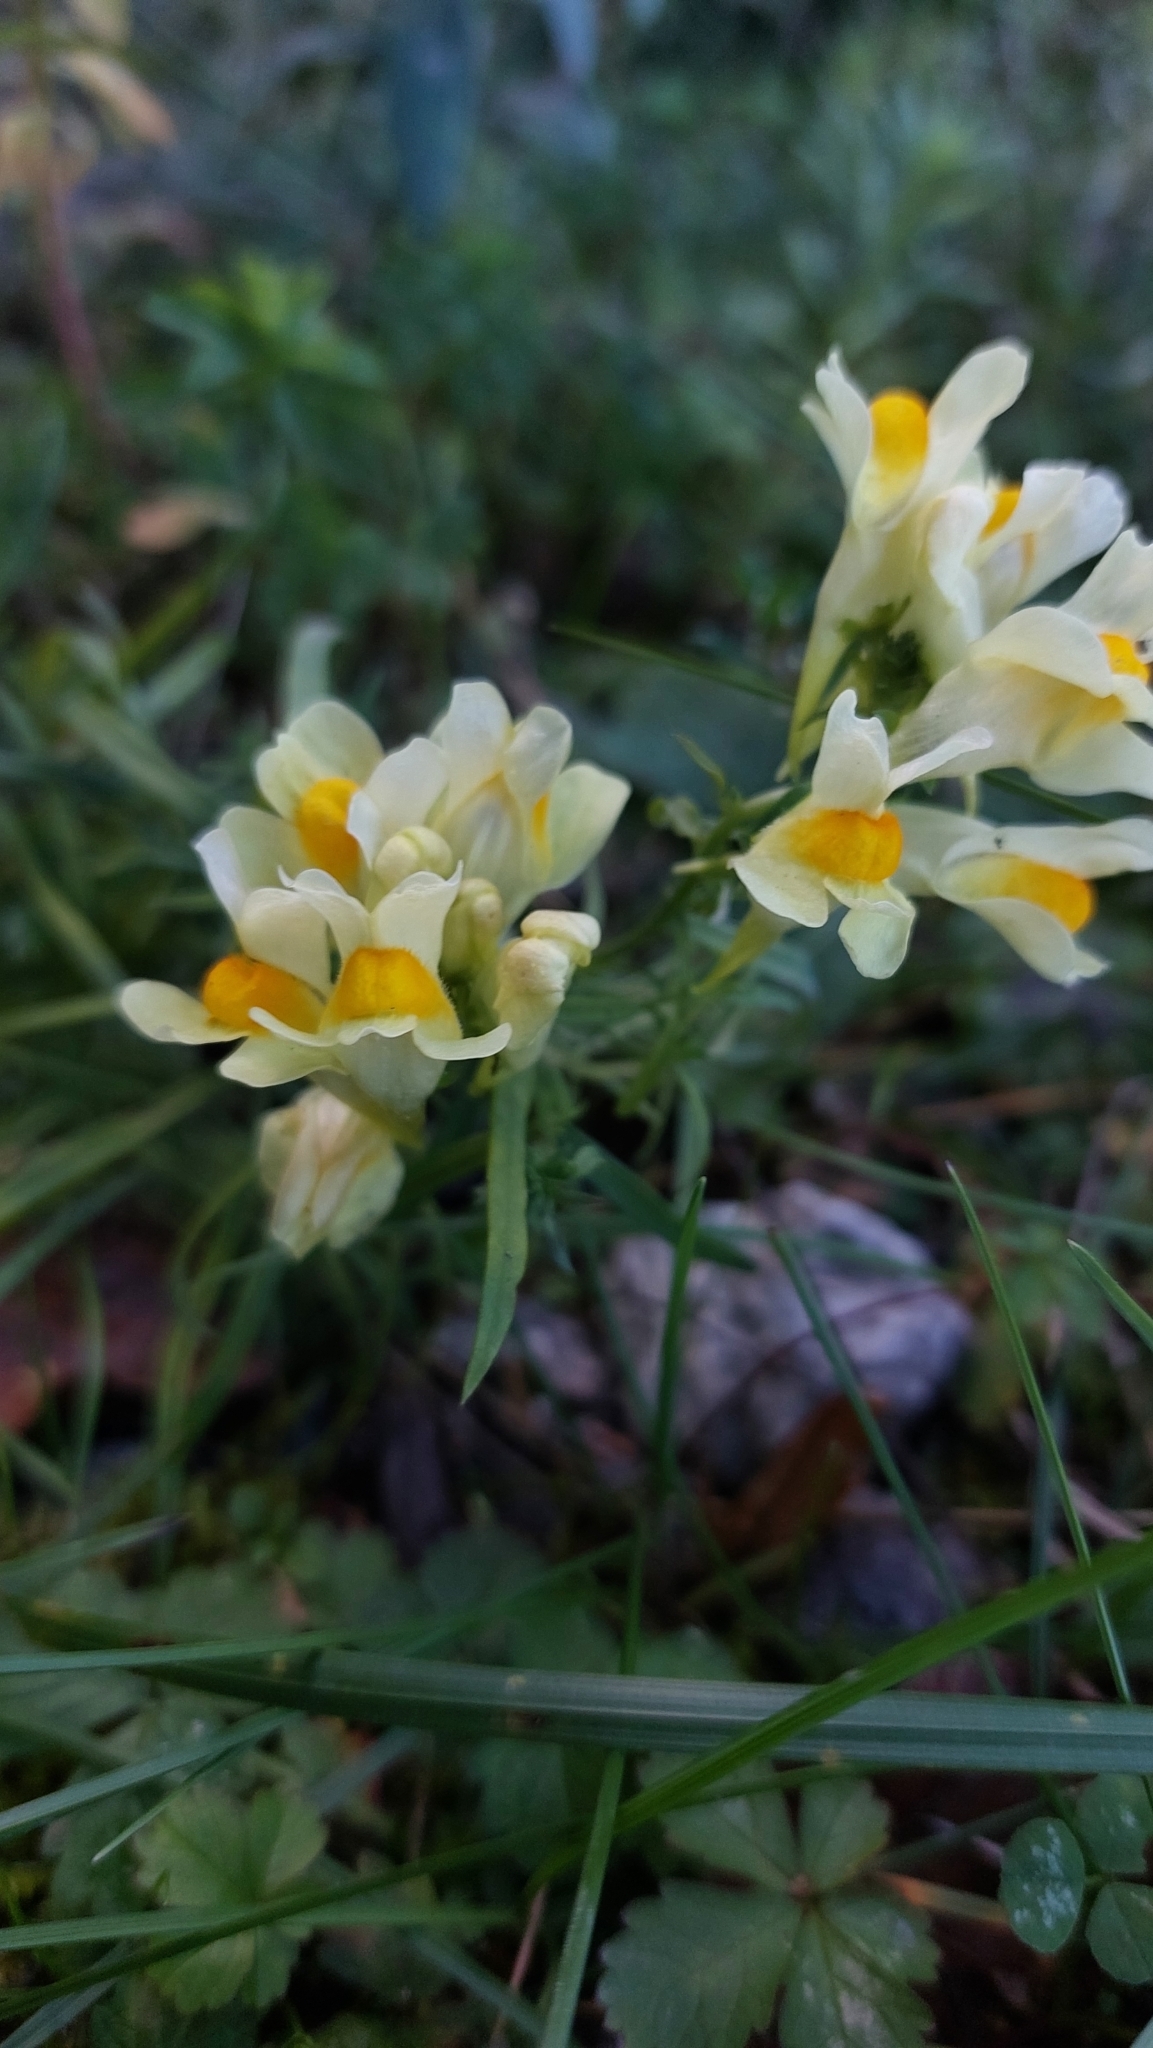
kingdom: Plantae
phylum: Tracheophyta
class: Magnoliopsida
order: Lamiales
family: Plantaginaceae
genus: Linaria
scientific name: Linaria vulgaris
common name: Butter and eggs
